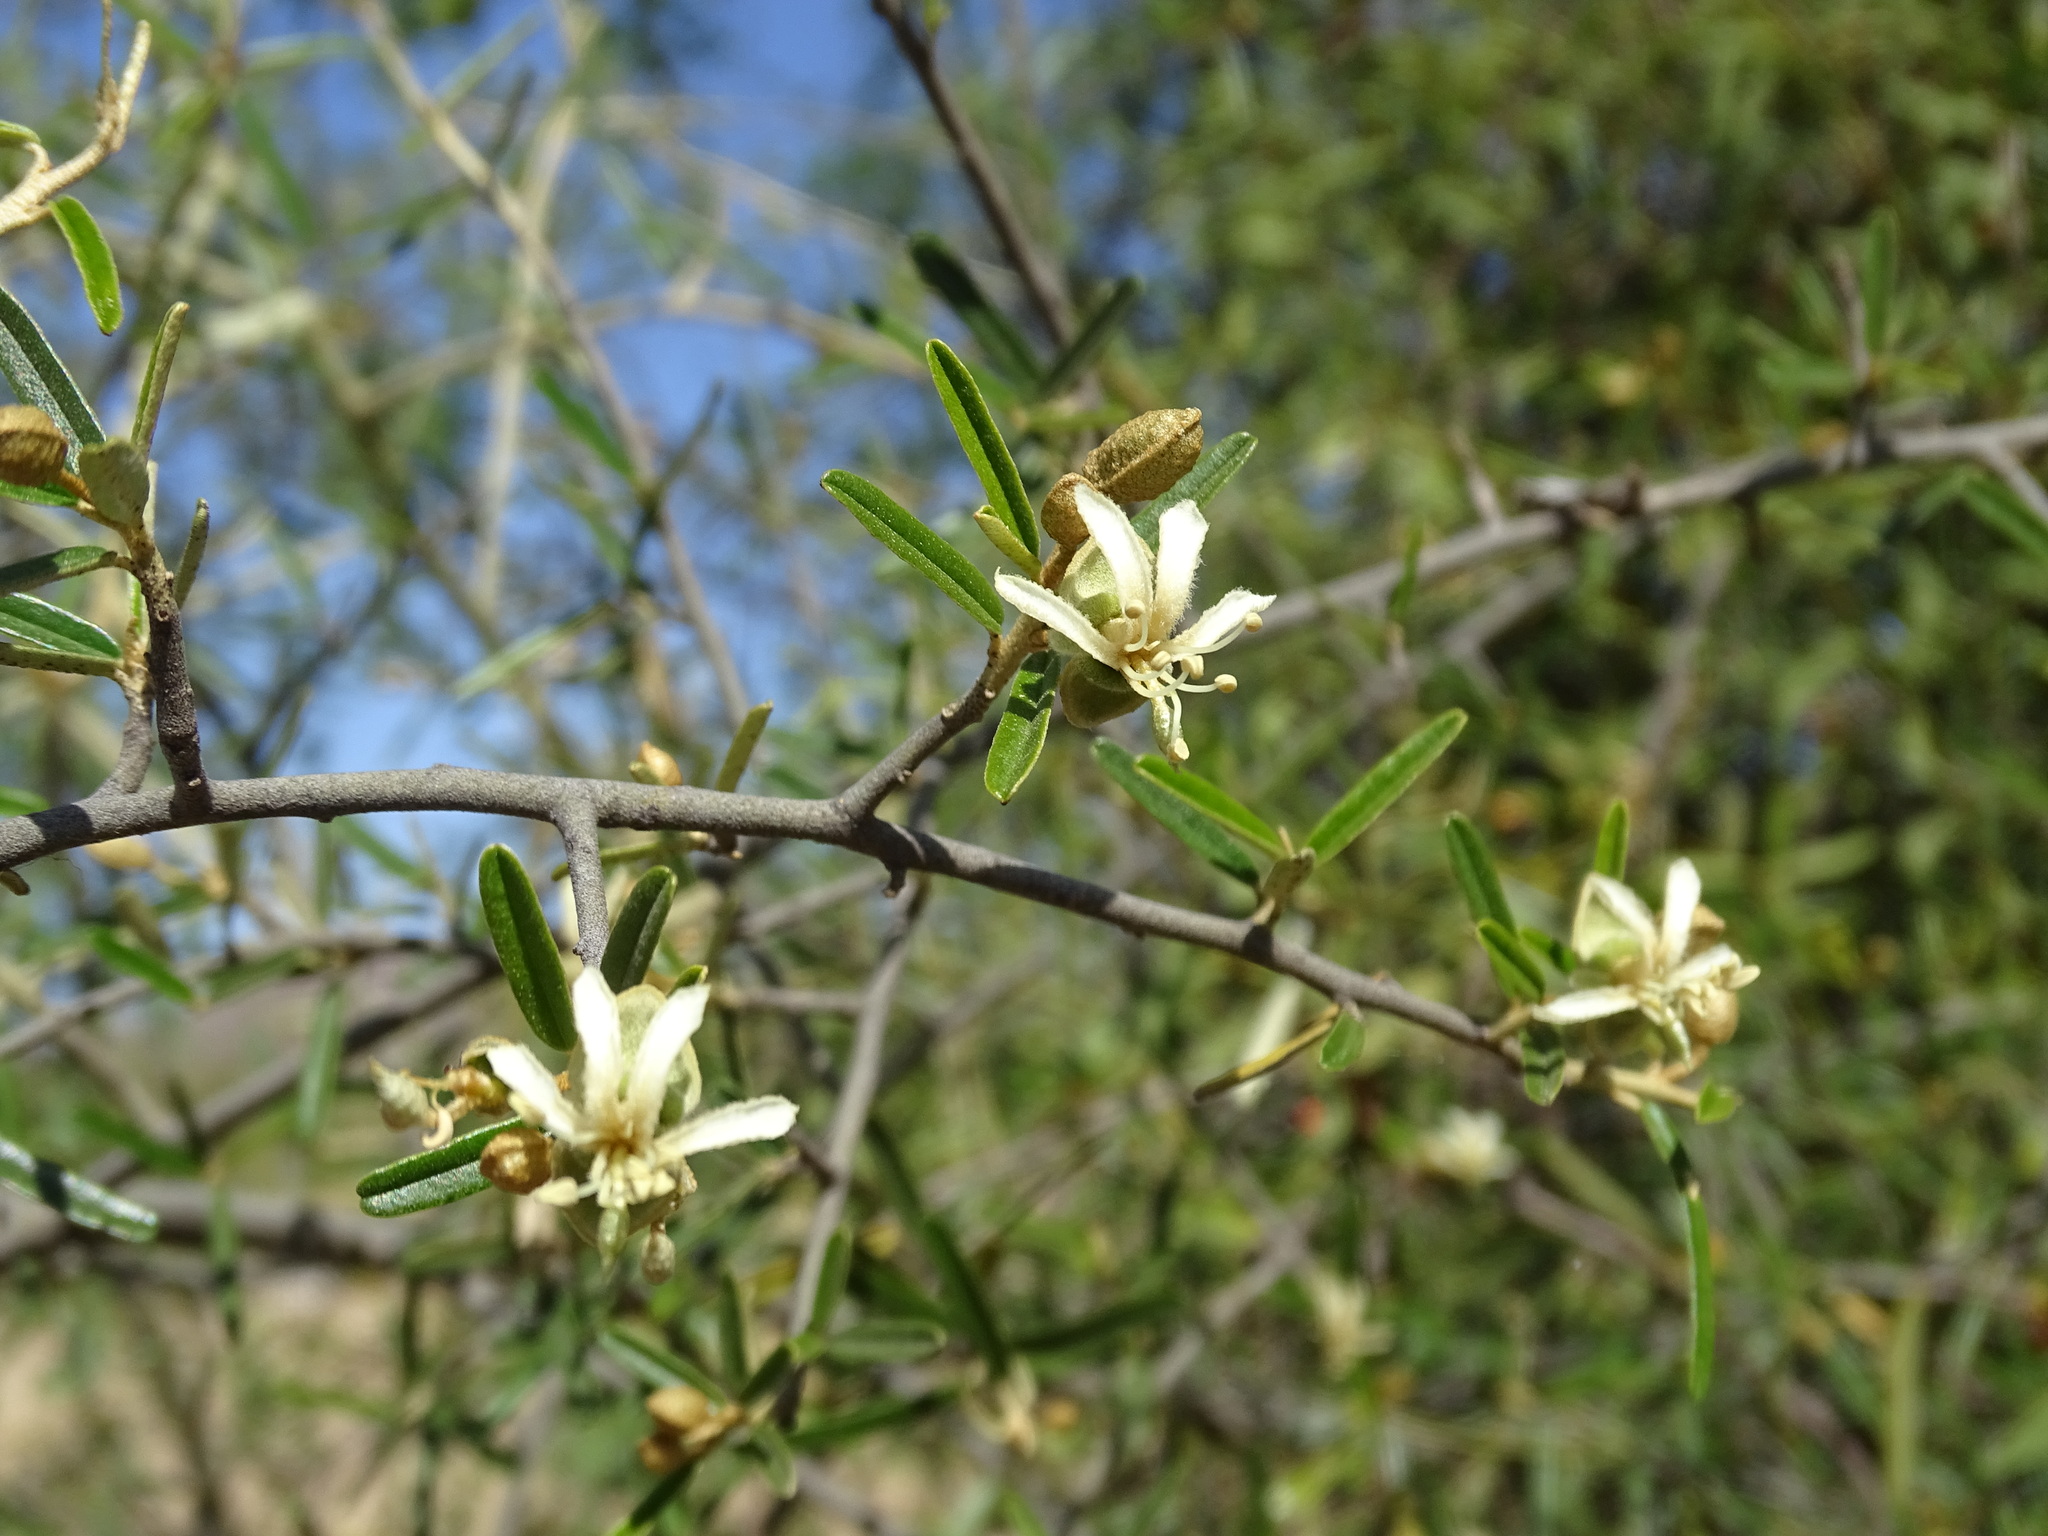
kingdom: Plantae
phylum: Tracheophyta
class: Magnoliopsida
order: Brassicales
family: Capparaceae
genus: Atamisquea
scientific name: Atamisquea emarginata
